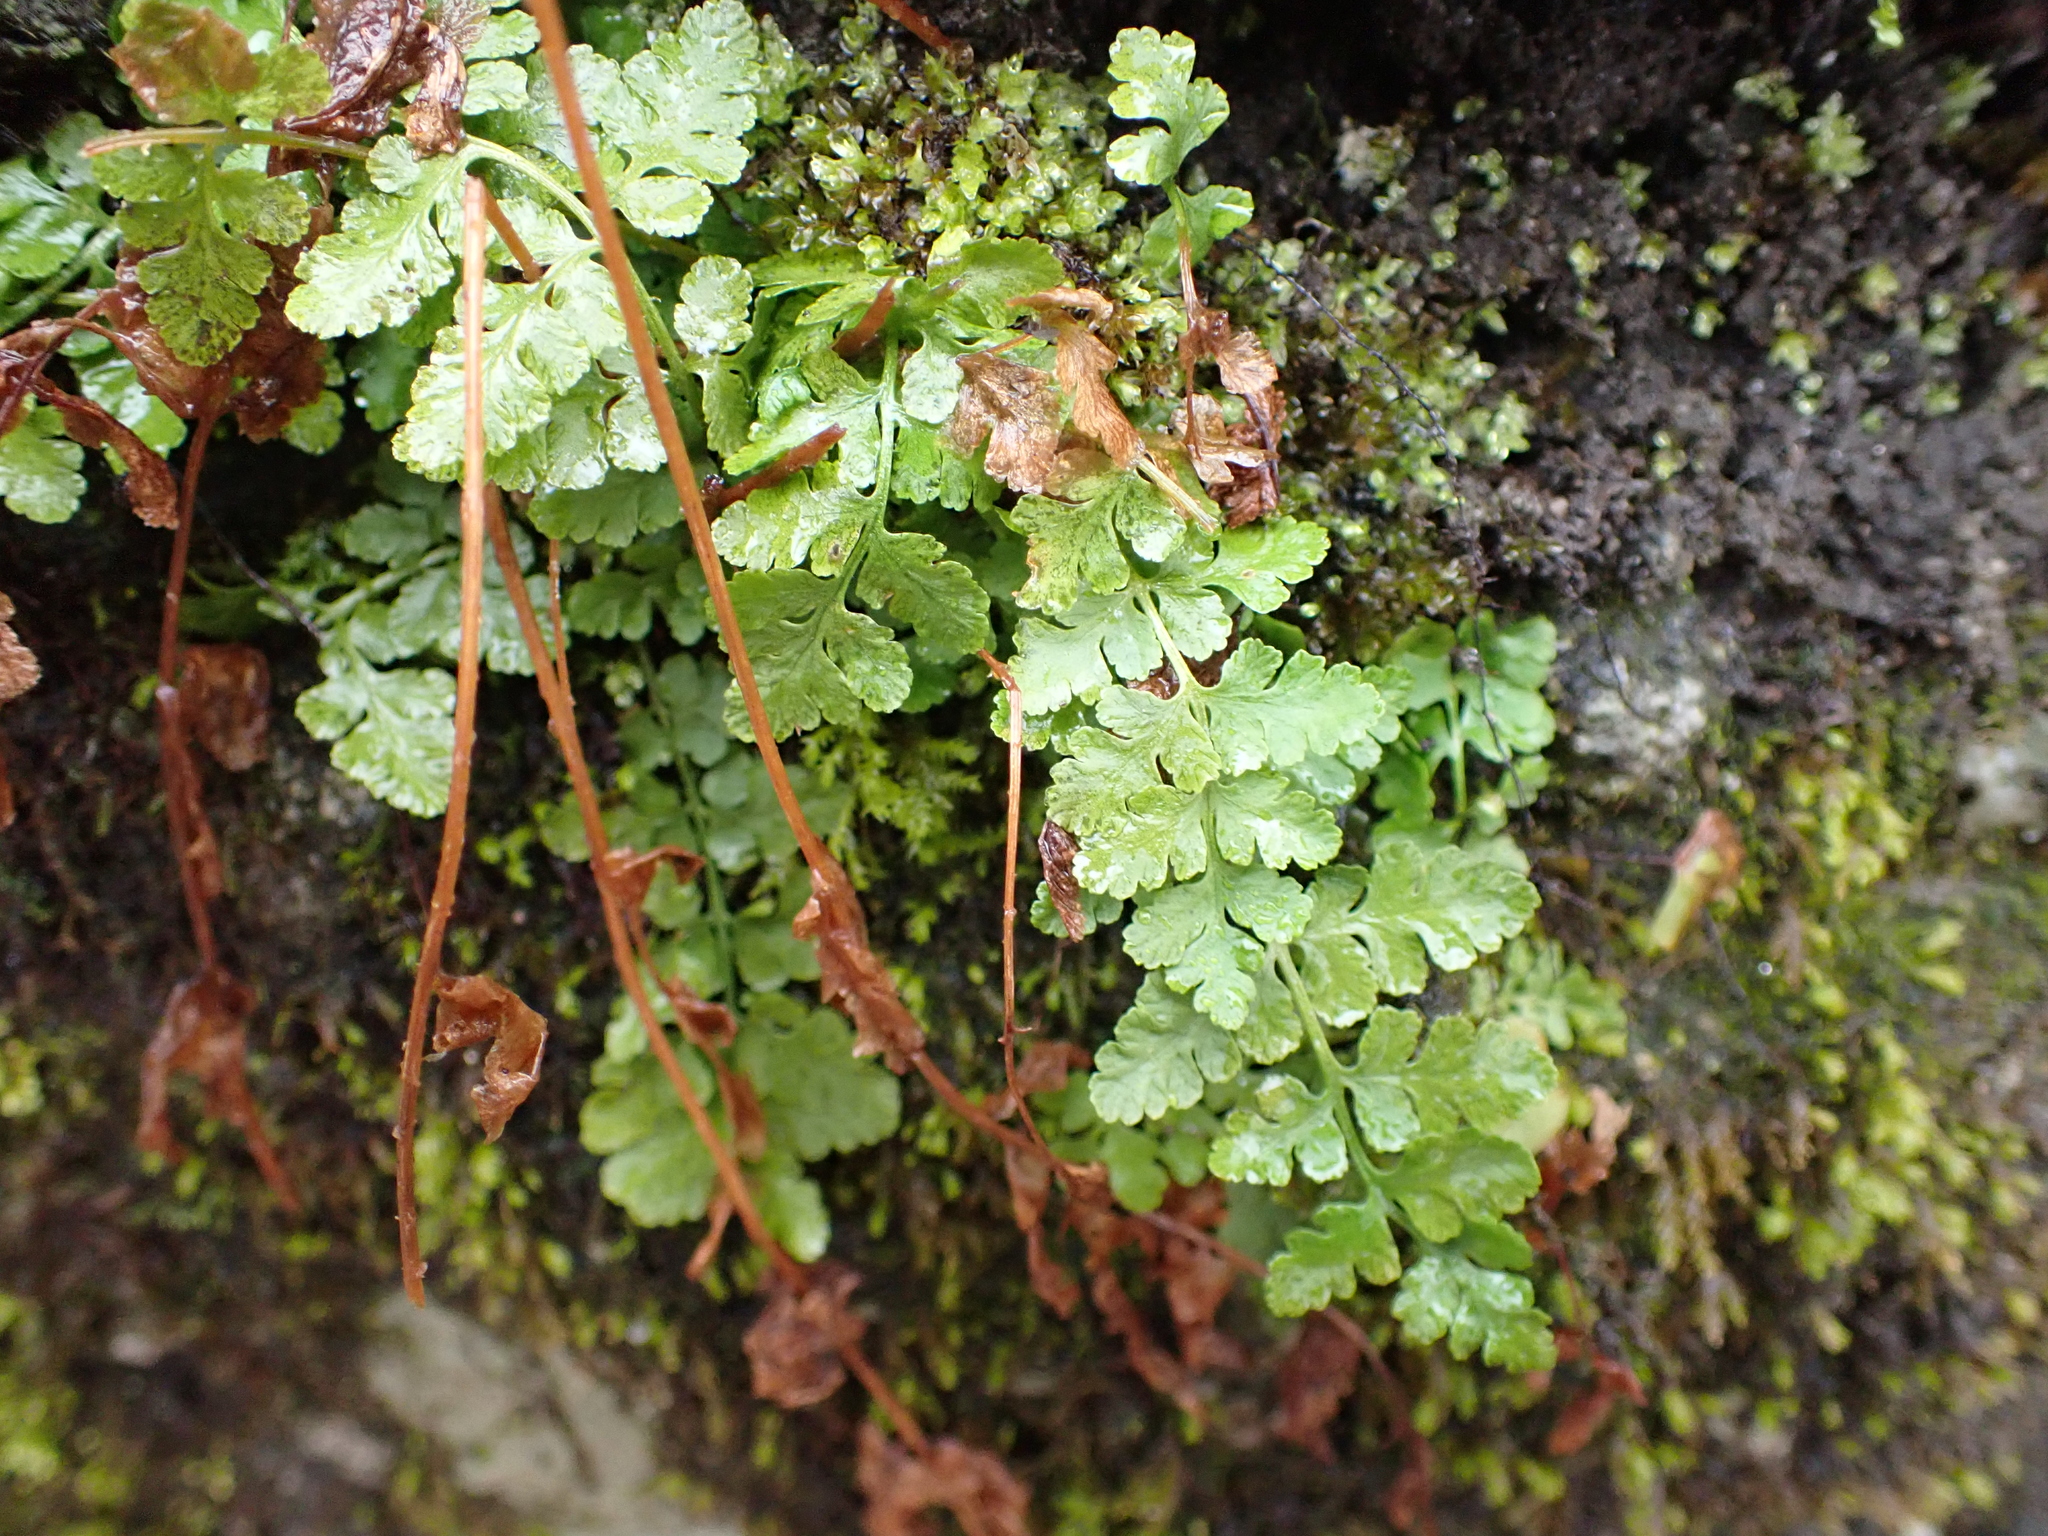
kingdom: Plantae
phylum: Tracheophyta
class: Polypodiopsida
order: Polypodiales
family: Woodsiaceae
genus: Physematium
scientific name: Physematium obtusum
